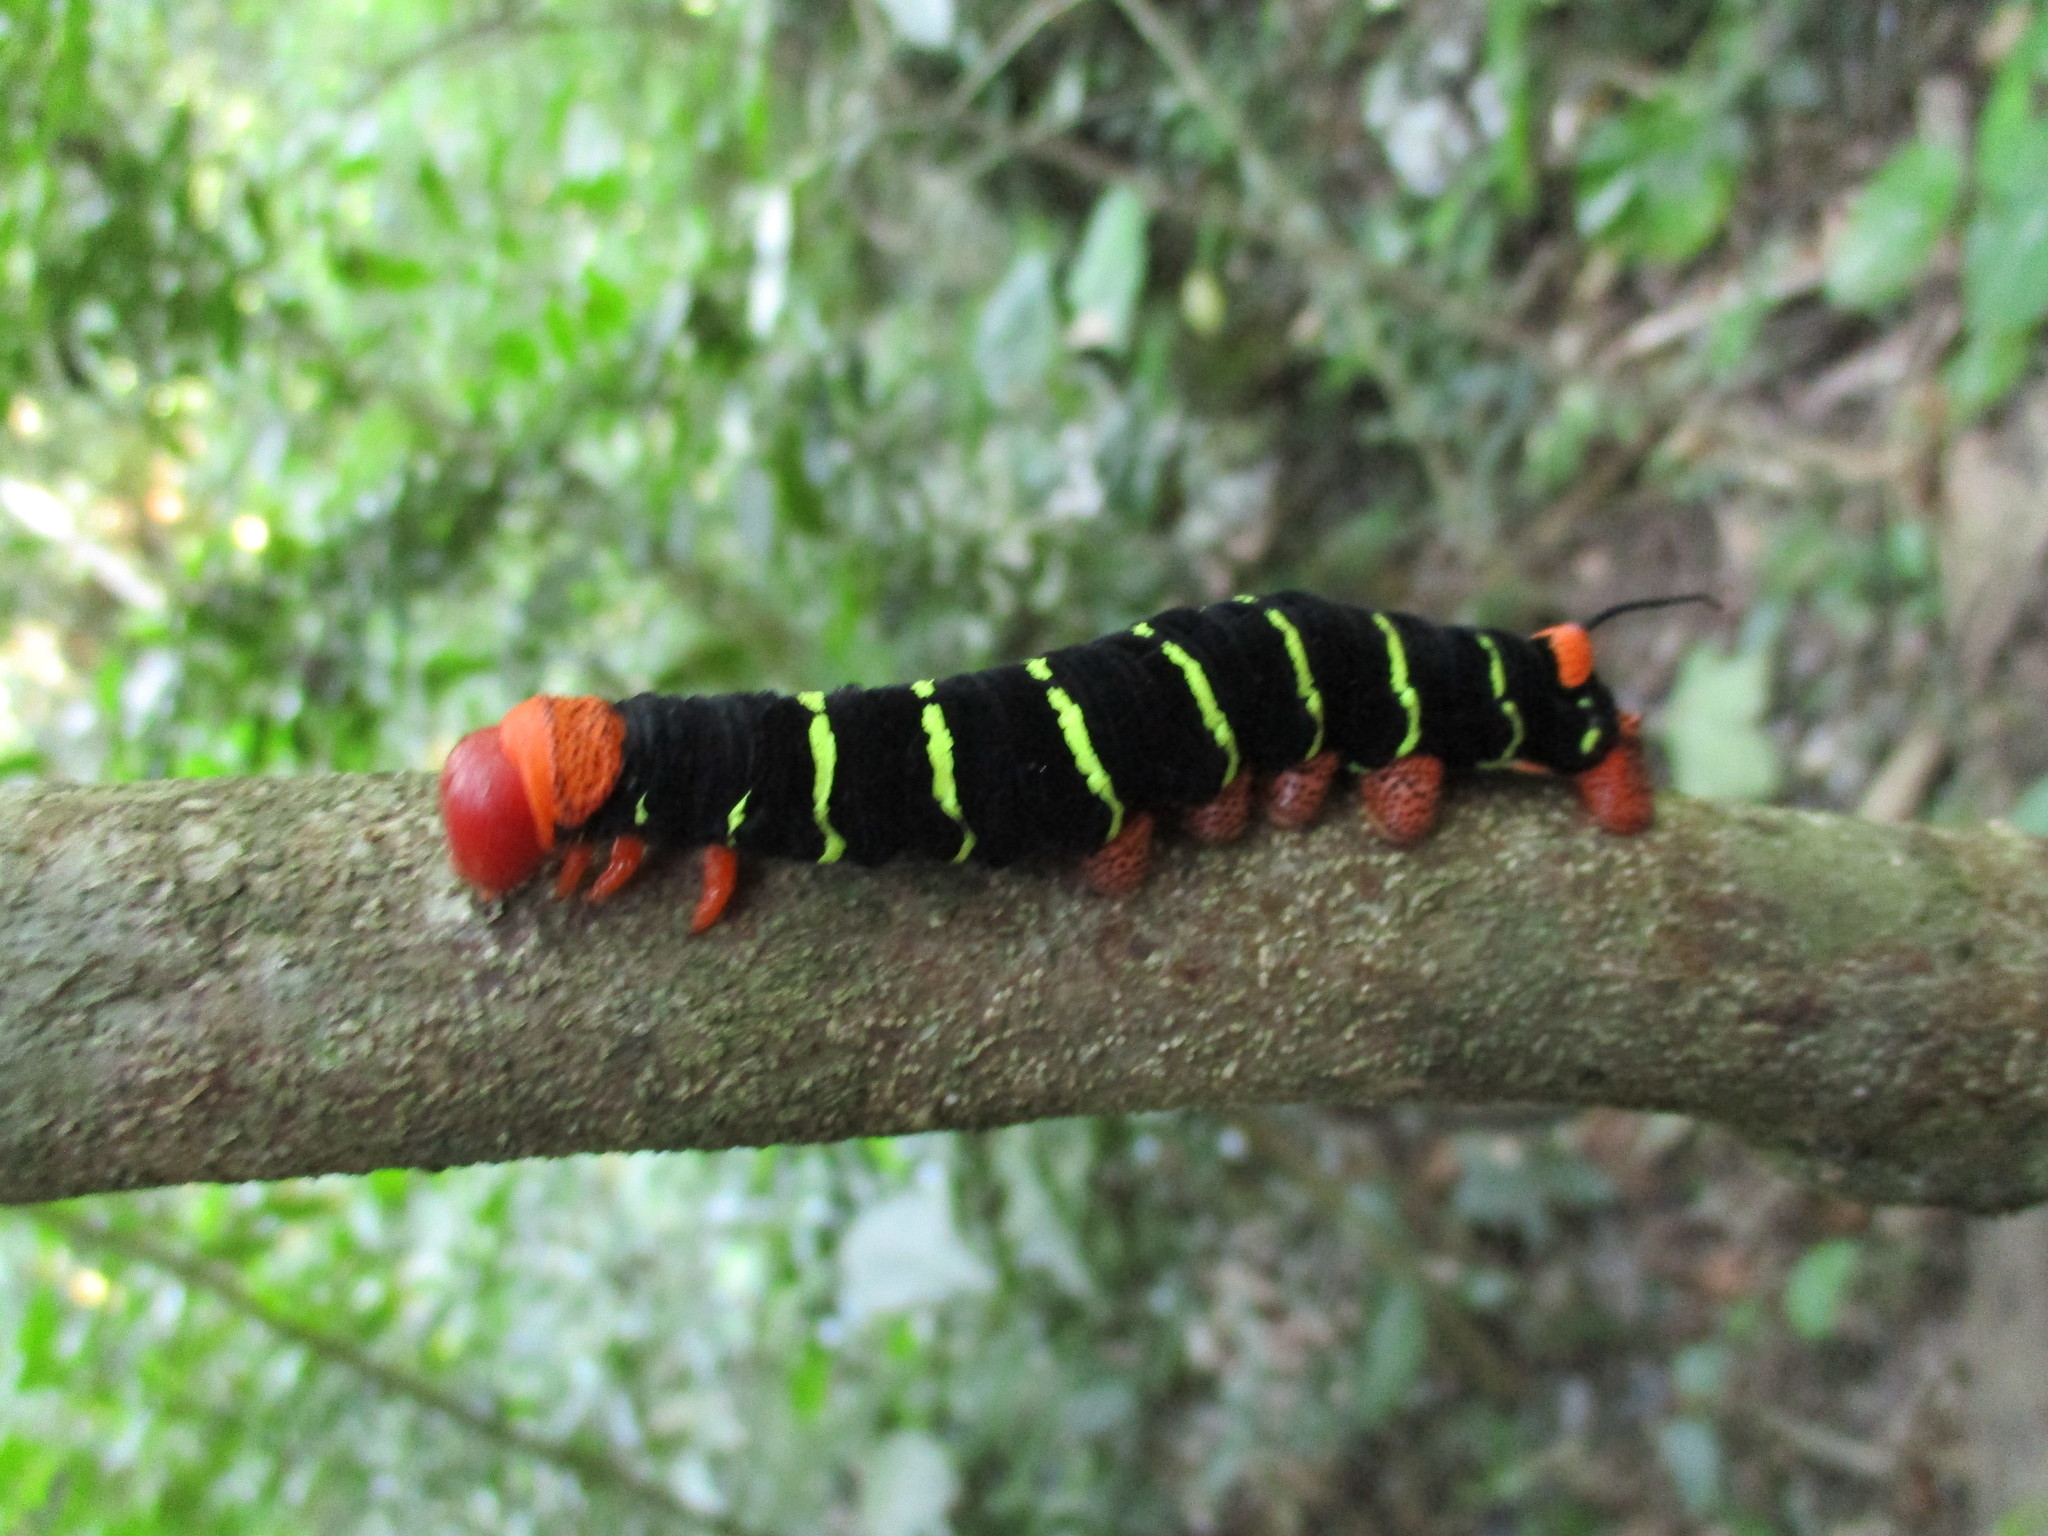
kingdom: Animalia
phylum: Arthropoda
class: Insecta
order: Lepidoptera
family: Sphingidae
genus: Pseudosphinx
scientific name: Pseudosphinx tetrio
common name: Tetrio sphinx
